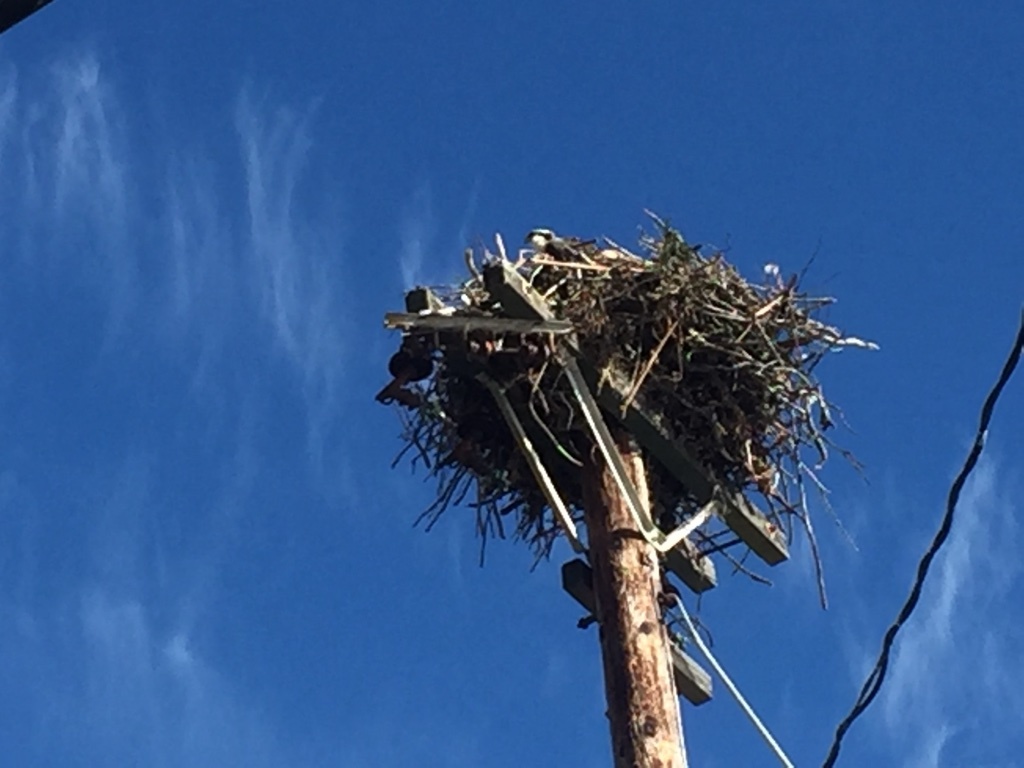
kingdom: Animalia
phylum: Chordata
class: Aves
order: Accipitriformes
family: Pandionidae
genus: Pandion
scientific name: Pandion haliaetus
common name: Osprey
